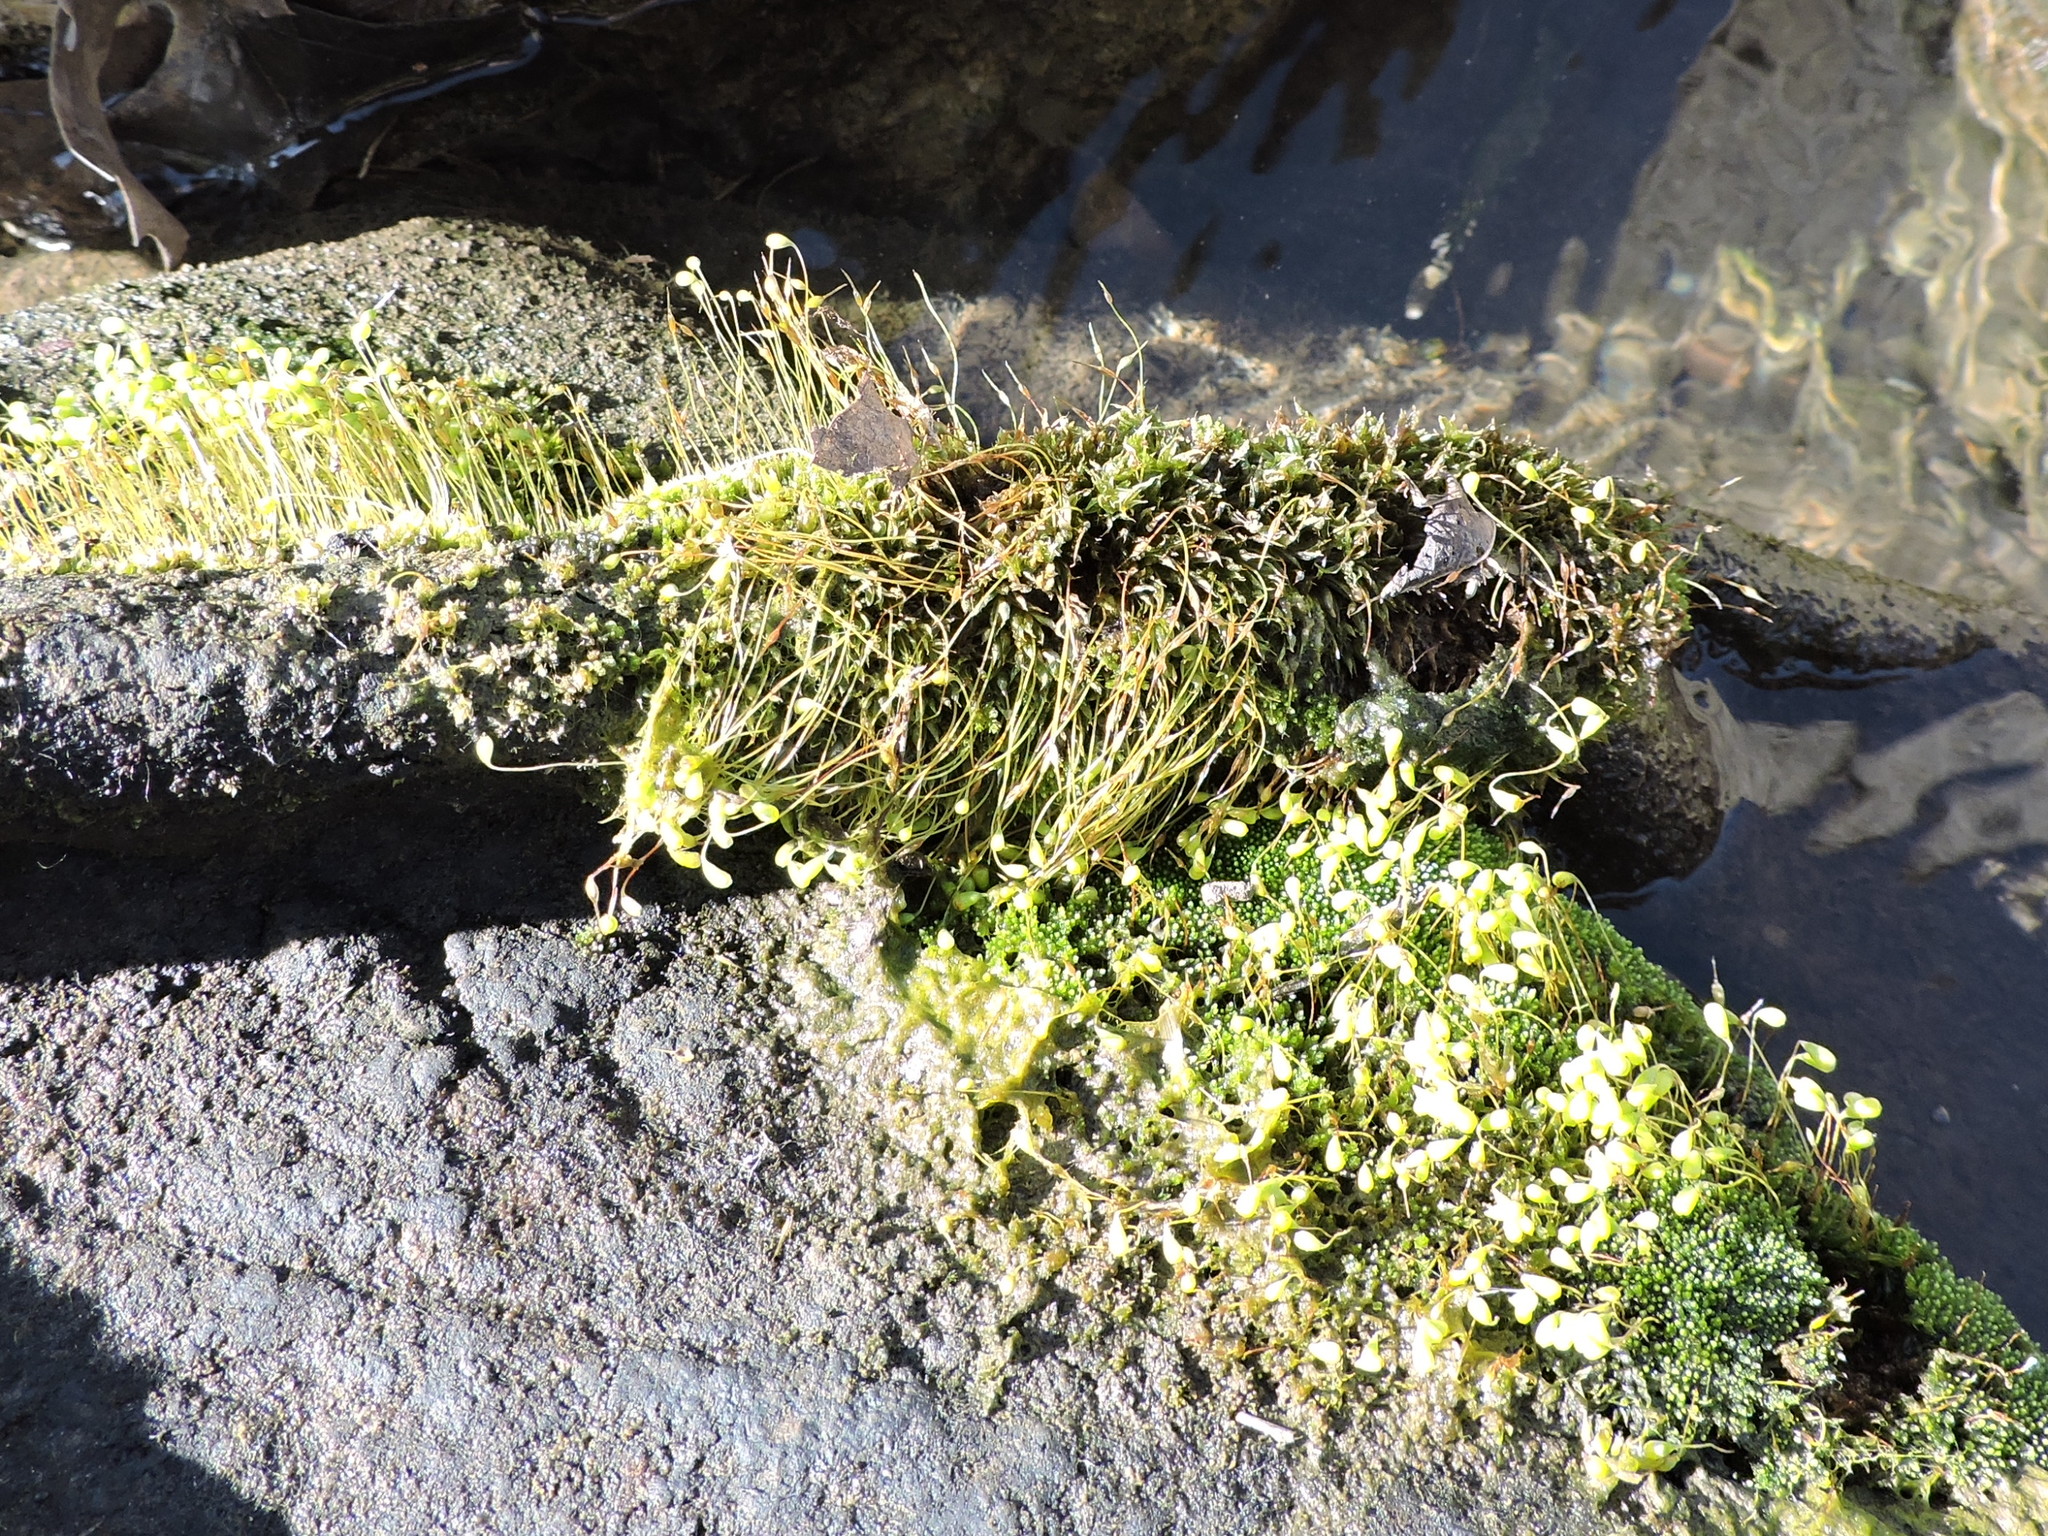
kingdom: Plantae
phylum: Bryophyta
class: Bryopsida
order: Funariales
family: Funariaceae
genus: Funaria
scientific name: Funaria hygrometrica
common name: Common cord moss
